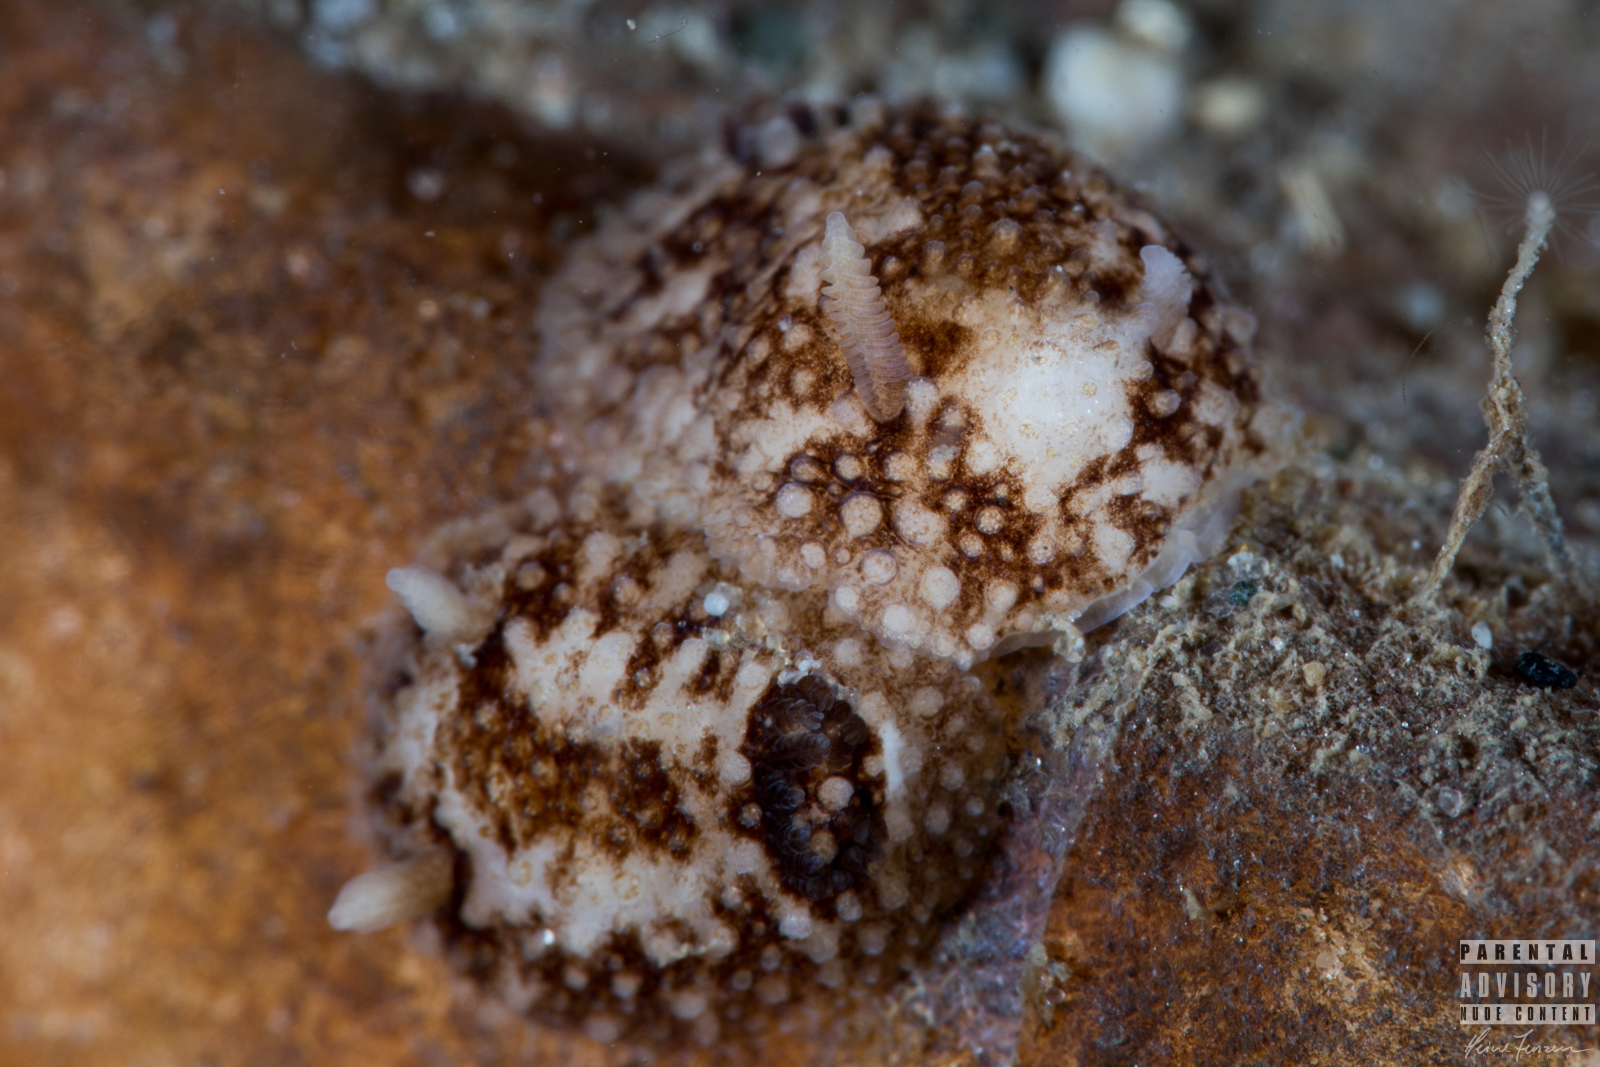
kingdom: Animalia
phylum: Mollusca
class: Gastropoda
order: Nudibranchia
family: Onchidorididae
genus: Onchidoris
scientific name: Onchidoris bilamellata
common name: Barnacle-eating onchidoris
